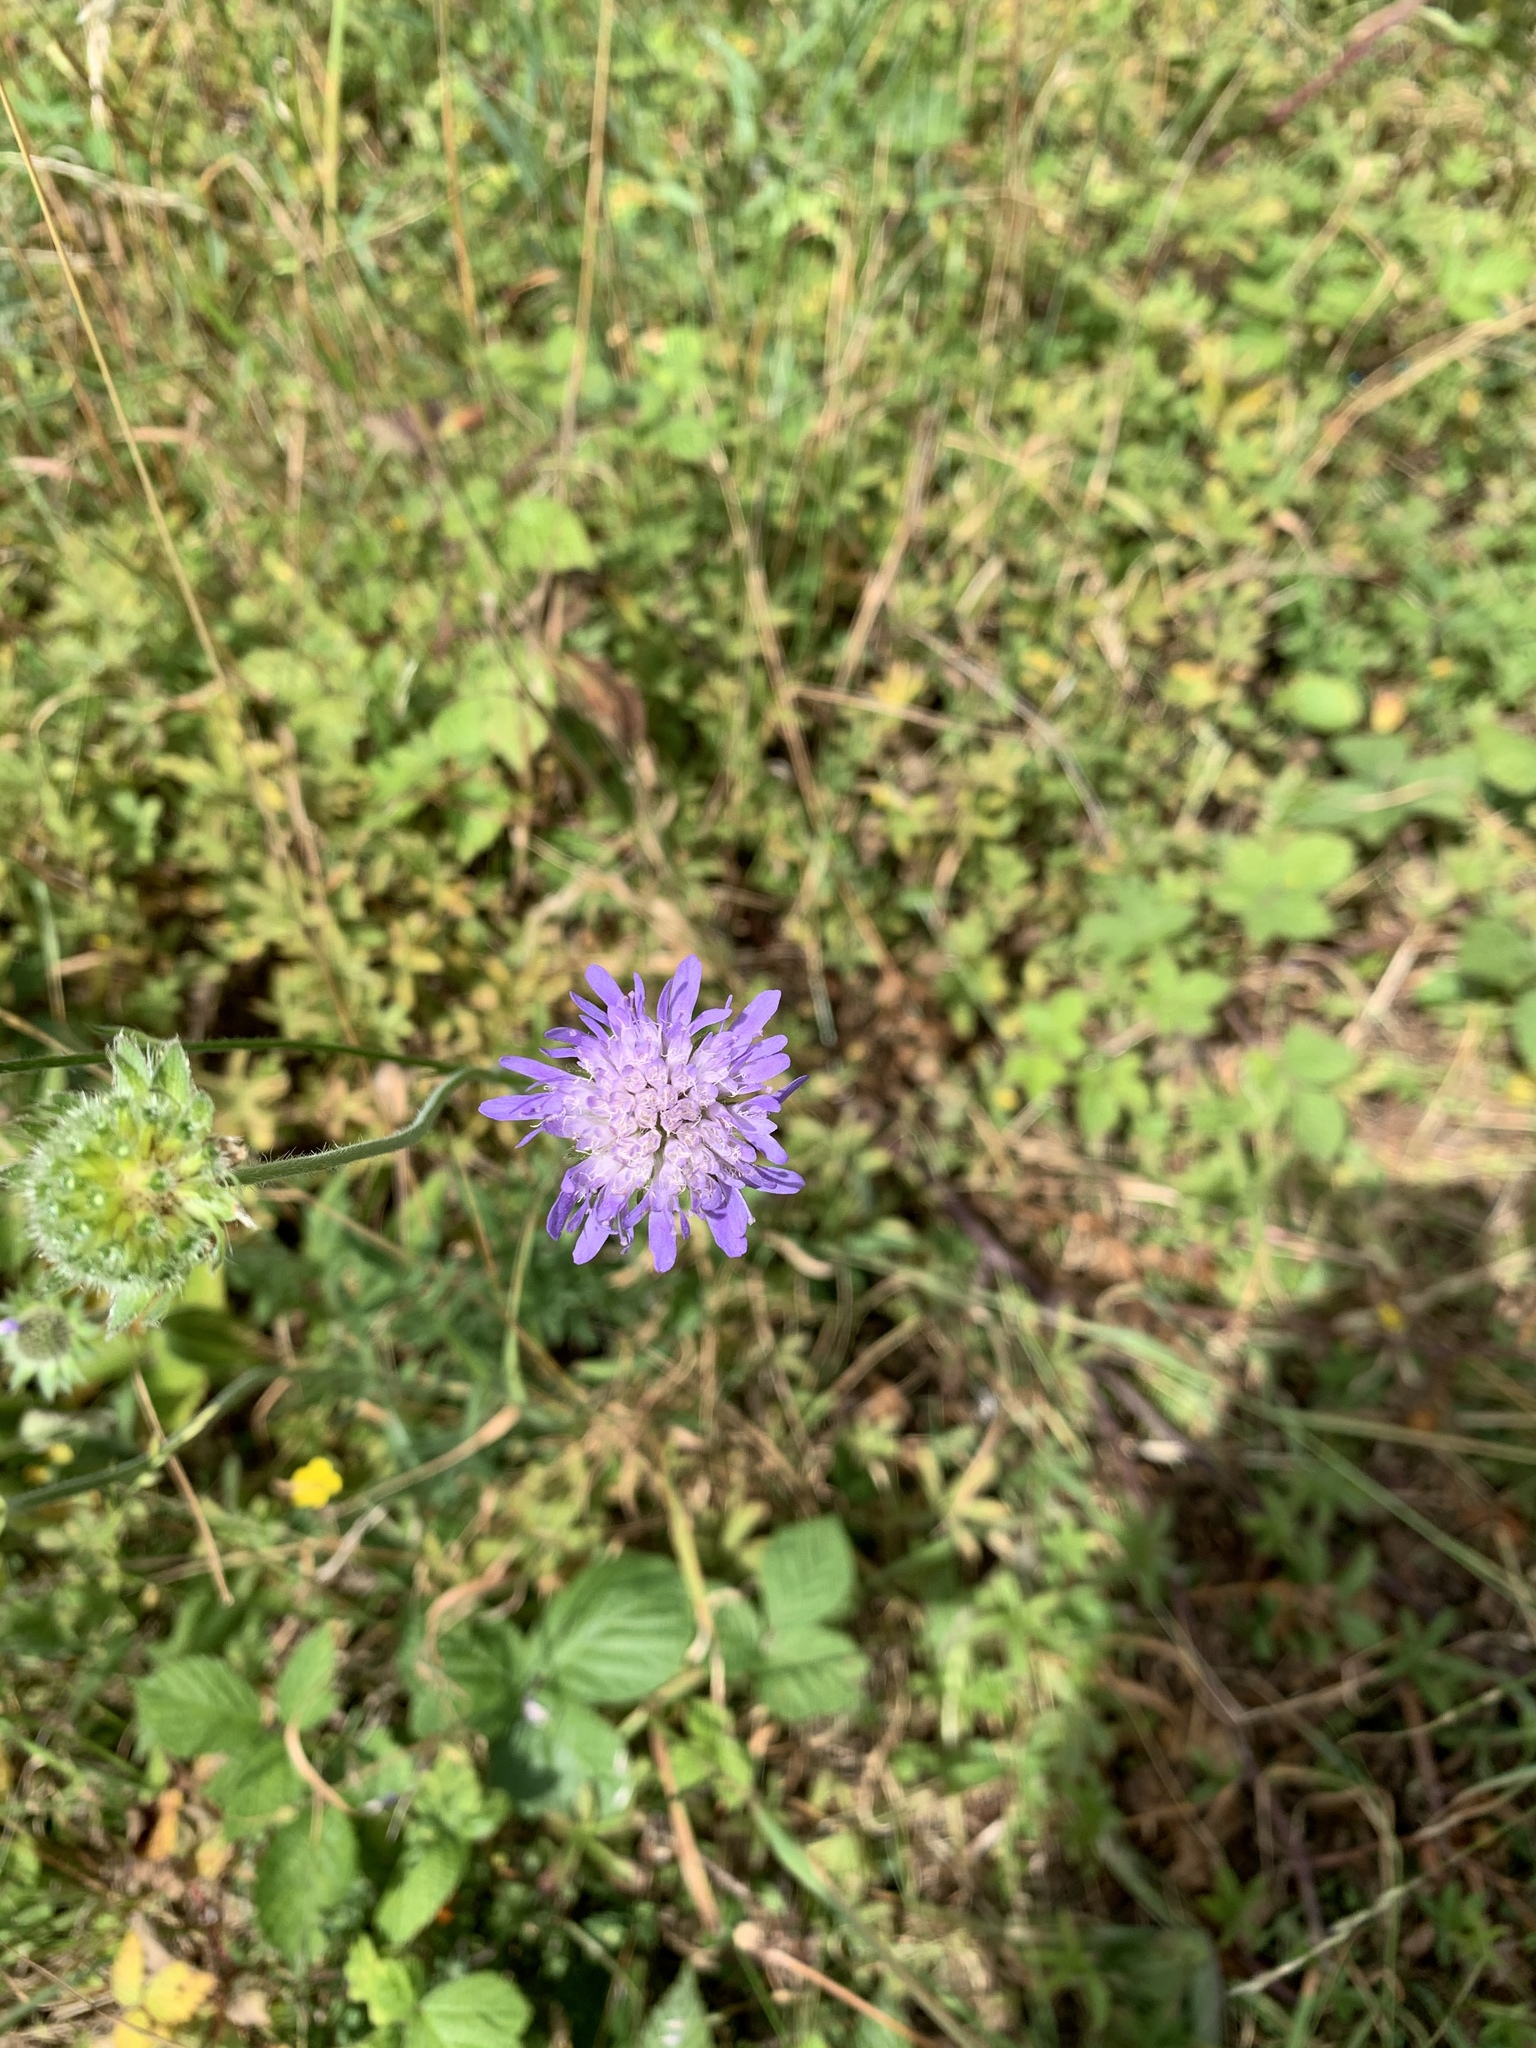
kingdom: Plantae
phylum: Tracheophyta
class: Magnoliopsida
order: Dipsacales
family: Caprifoliaceae
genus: Knautia
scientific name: Knautia arvensis
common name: Field scabiosa
